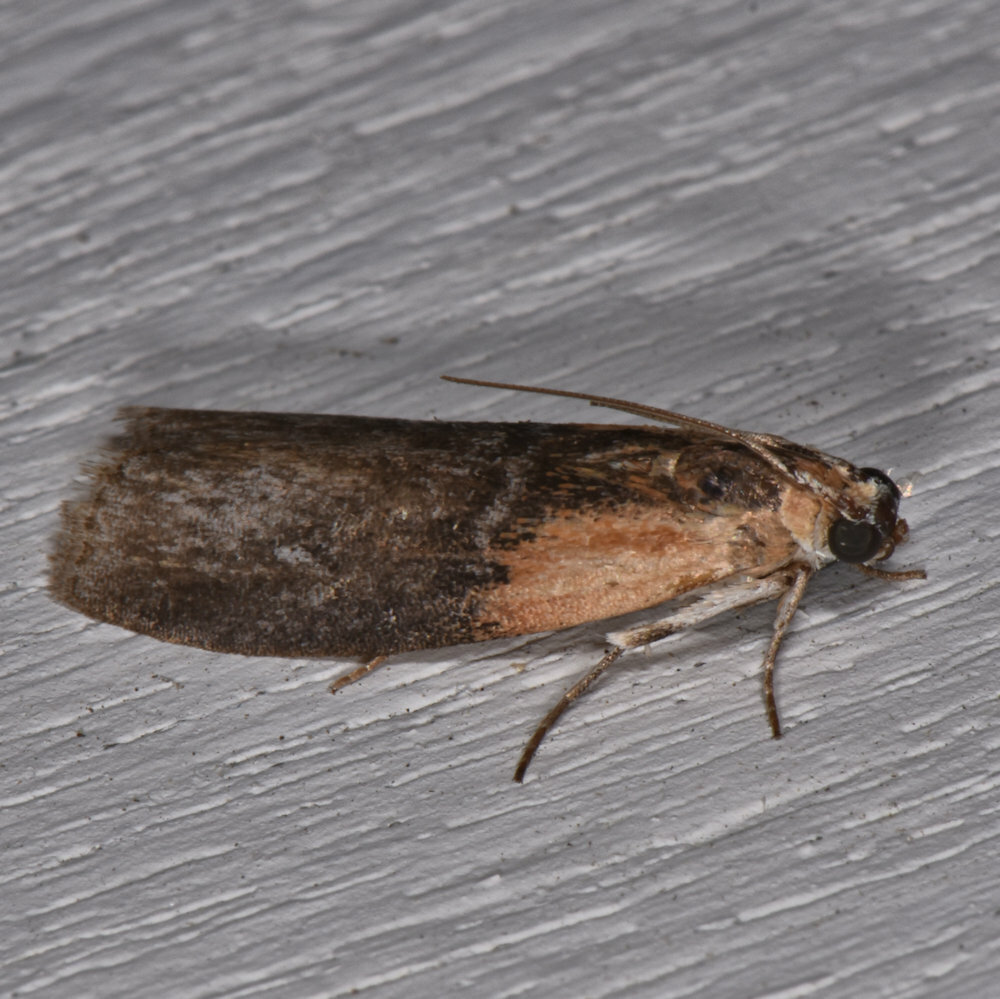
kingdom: Animalia
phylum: Arthropoda
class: Insecta
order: Lepidoptera
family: Pyralidae
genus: Sciota
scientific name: Sciota basilaris
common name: Yellow-shouldered leafroller
